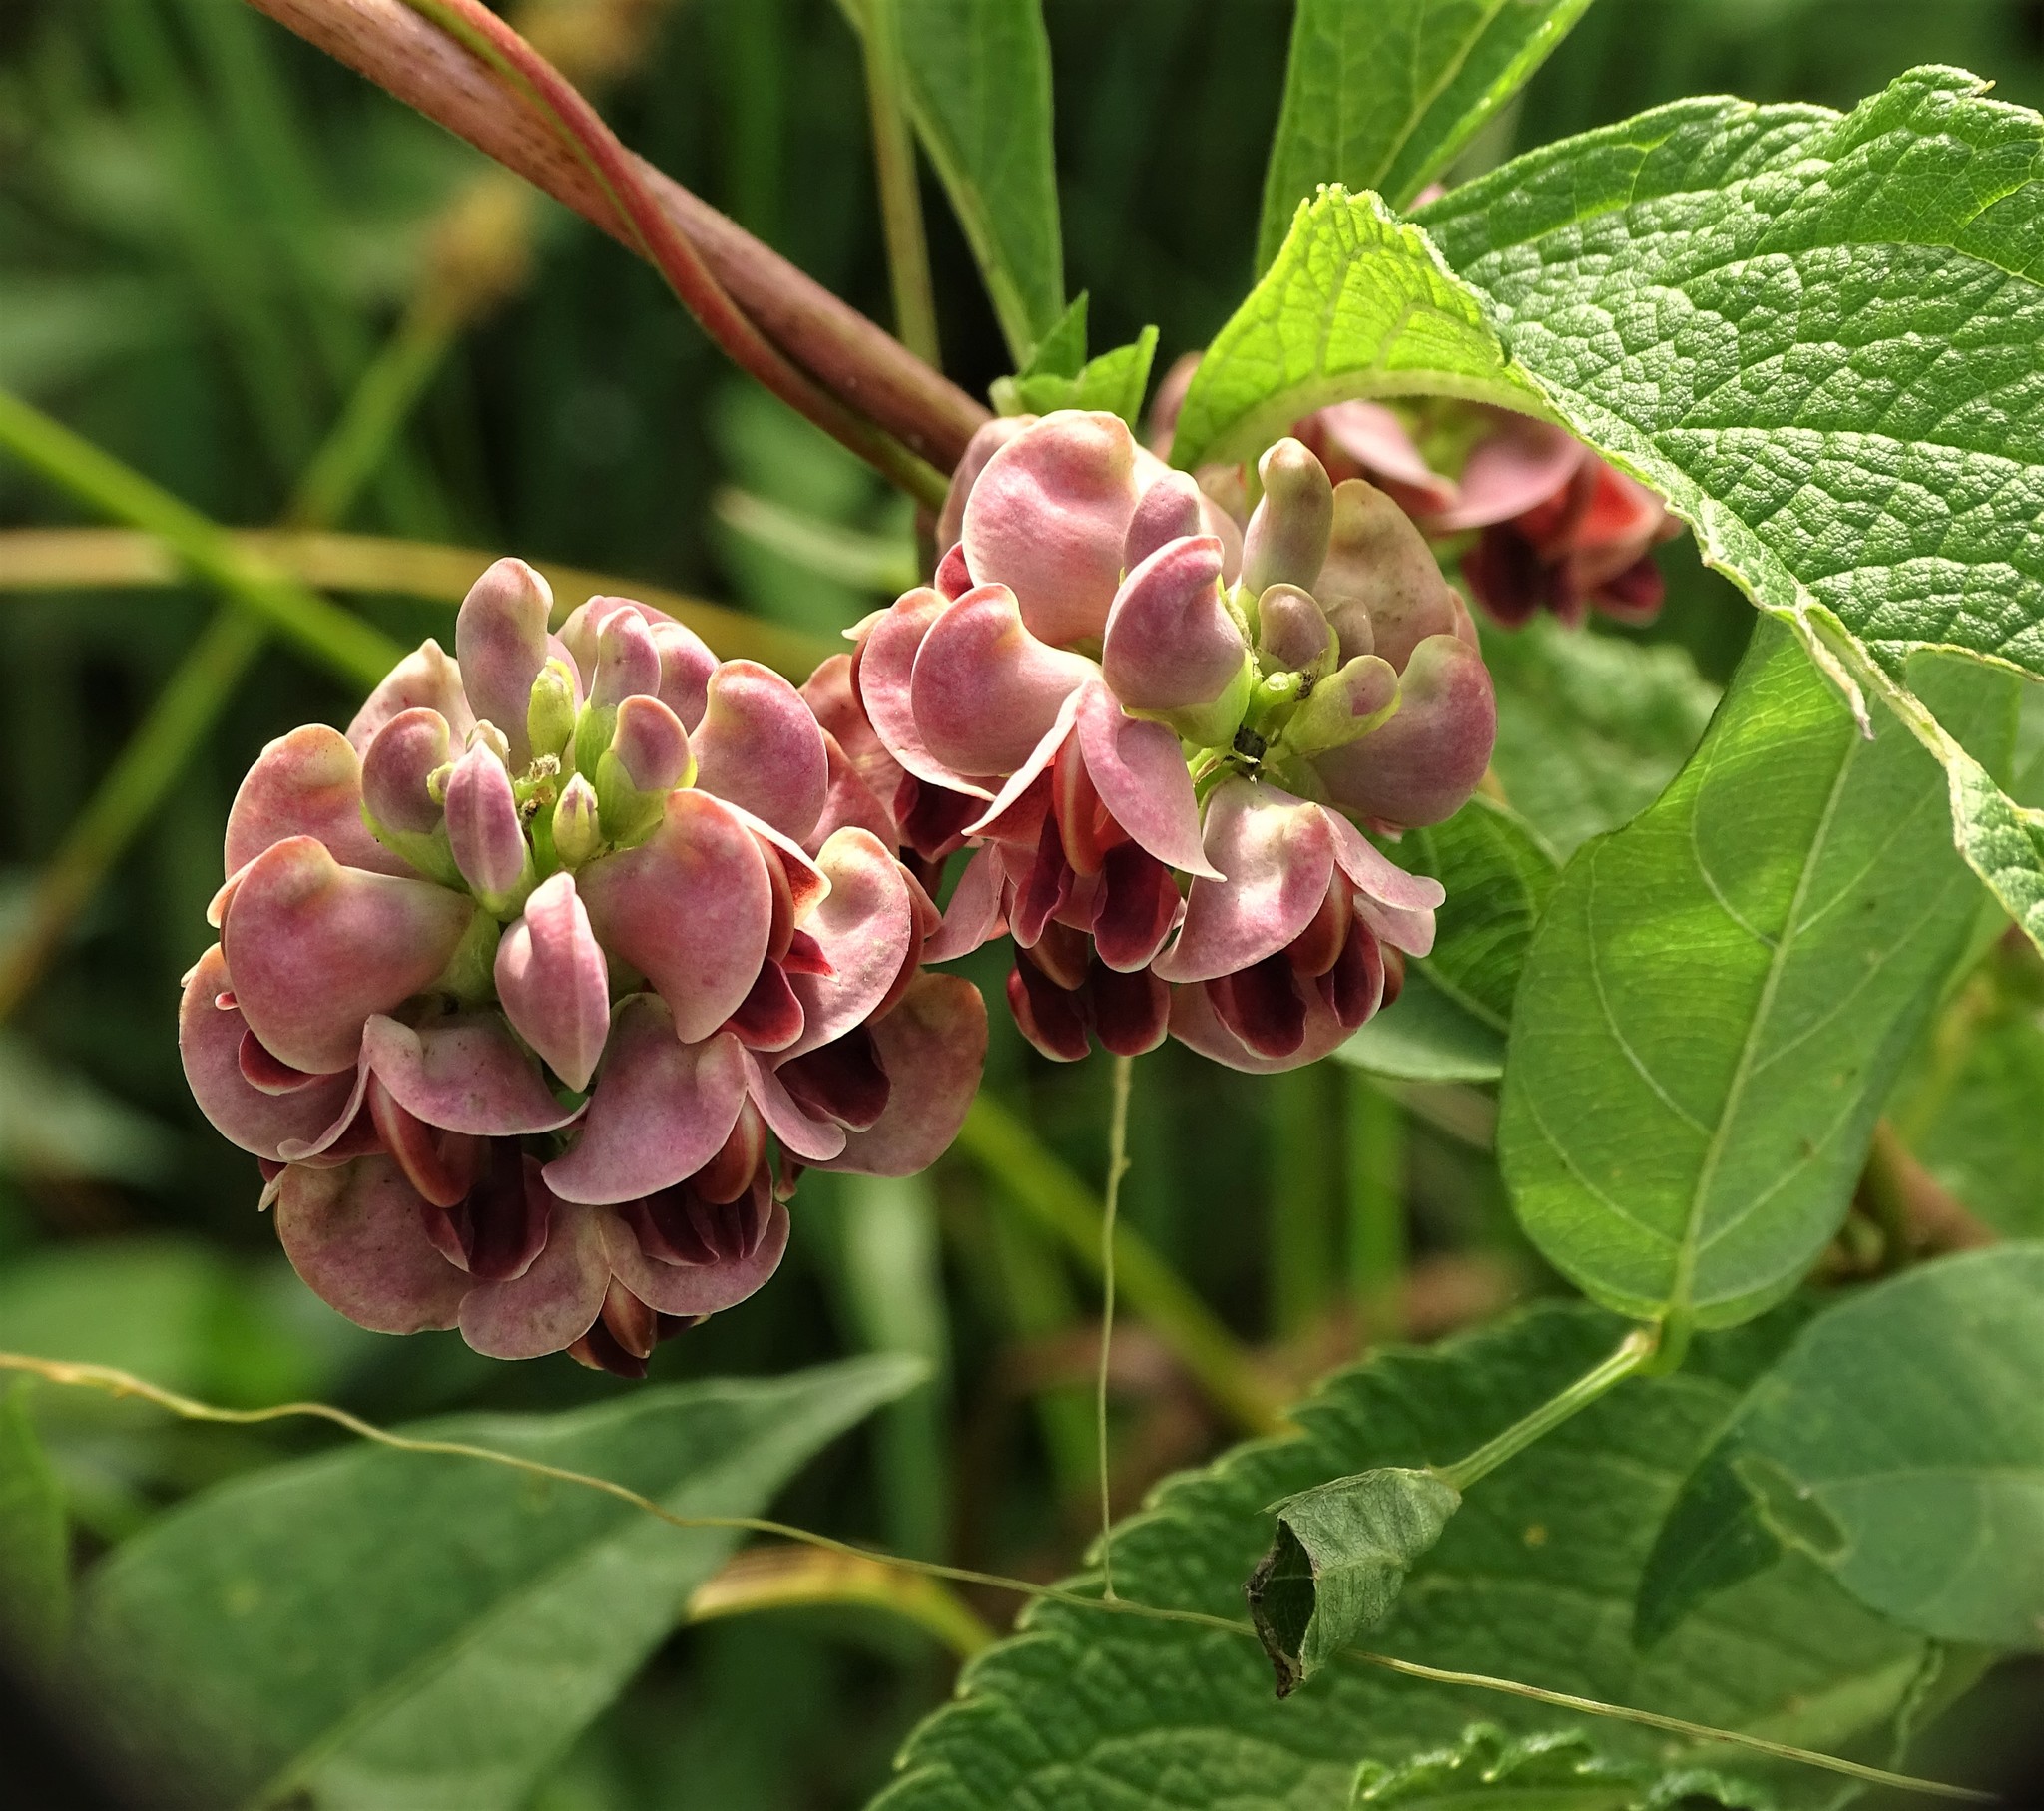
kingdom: Plantae
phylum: Tracheophyta
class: Magnoliopsida
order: Fabales
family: Fabaceae
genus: Apios
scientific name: Apios americana
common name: American potato-bean
